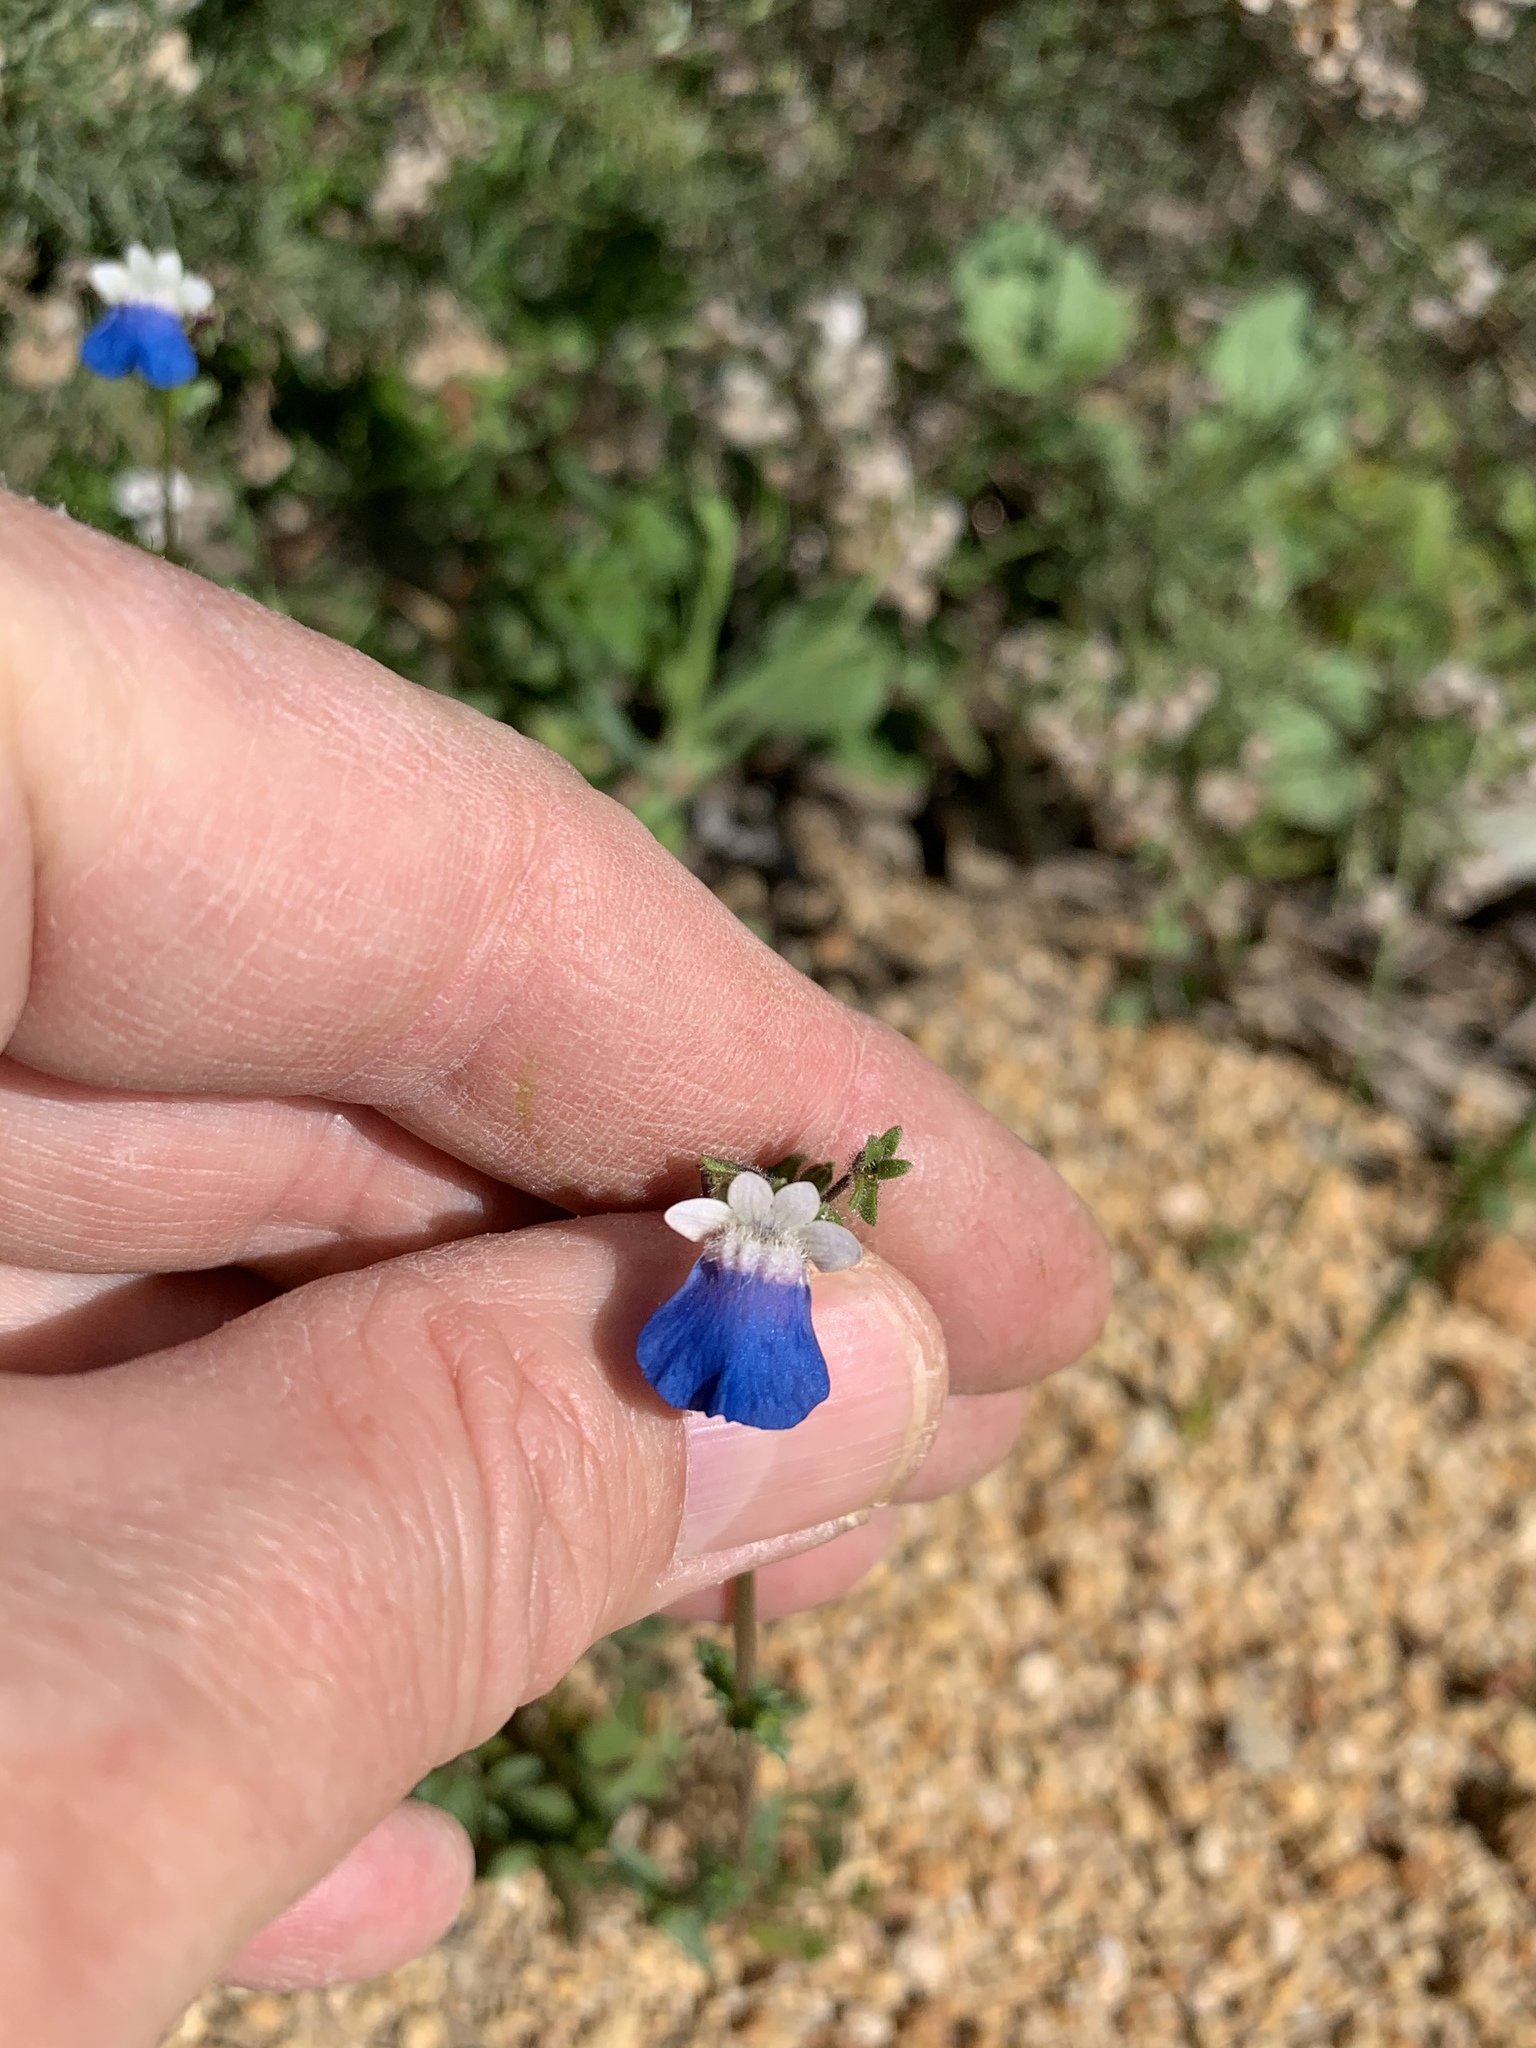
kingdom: Plantae
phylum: Tracheophyta
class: Magnoliopsida
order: Lamiales
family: Scrophulariaceae
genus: Nemesia
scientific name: Nemesia barbata
